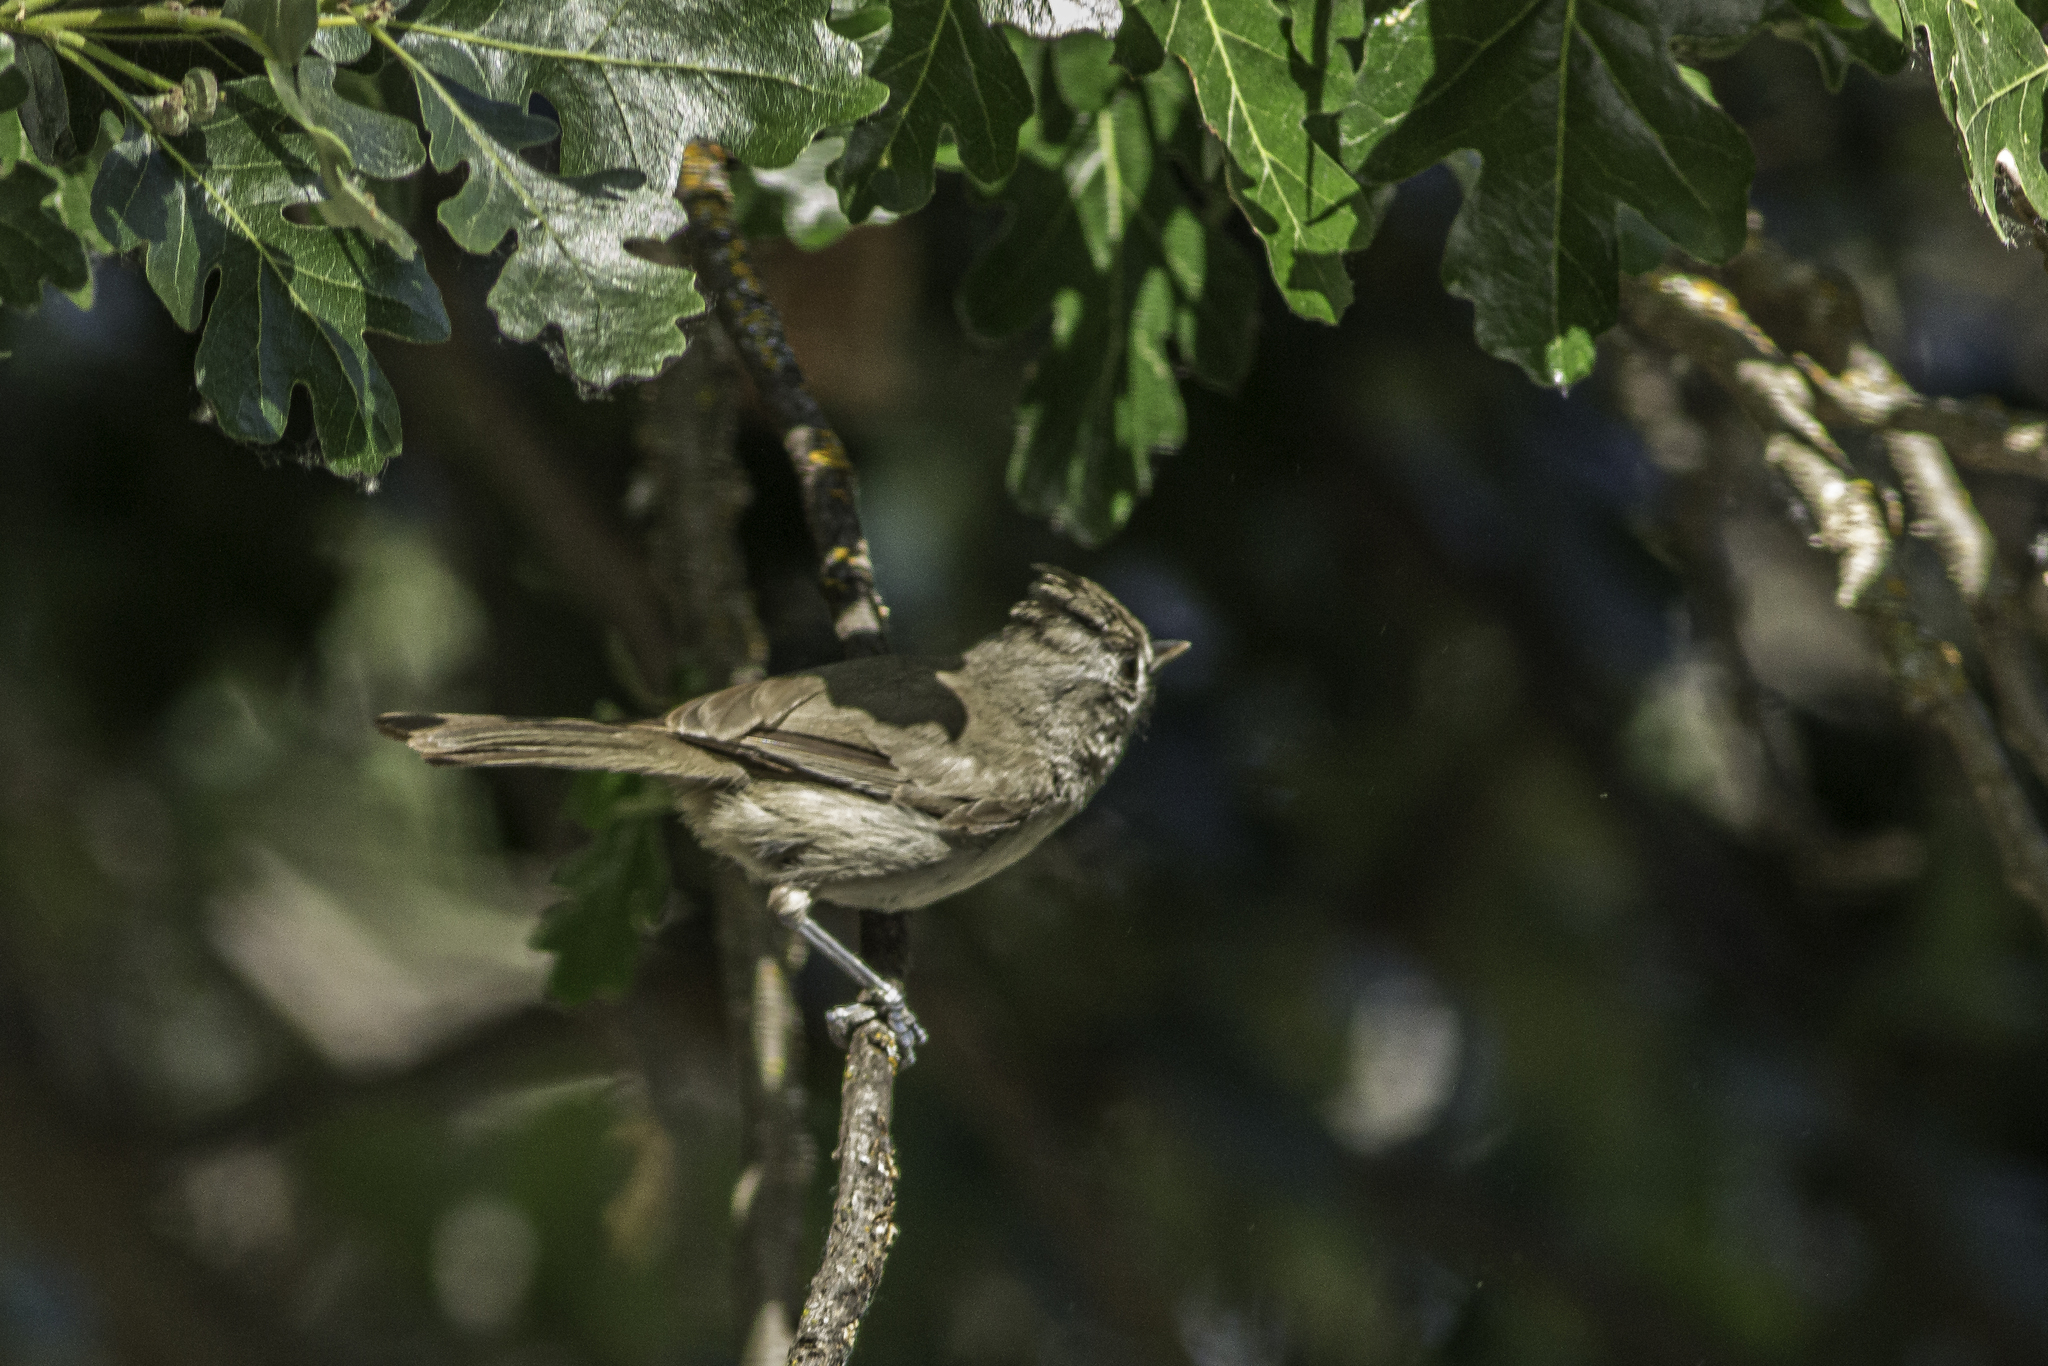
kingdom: Animalia
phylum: Chordata
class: Aves
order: Passeriformes
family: Paridae
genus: Baeolophus
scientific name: Baeolophus inornatus
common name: Oak titmouse
